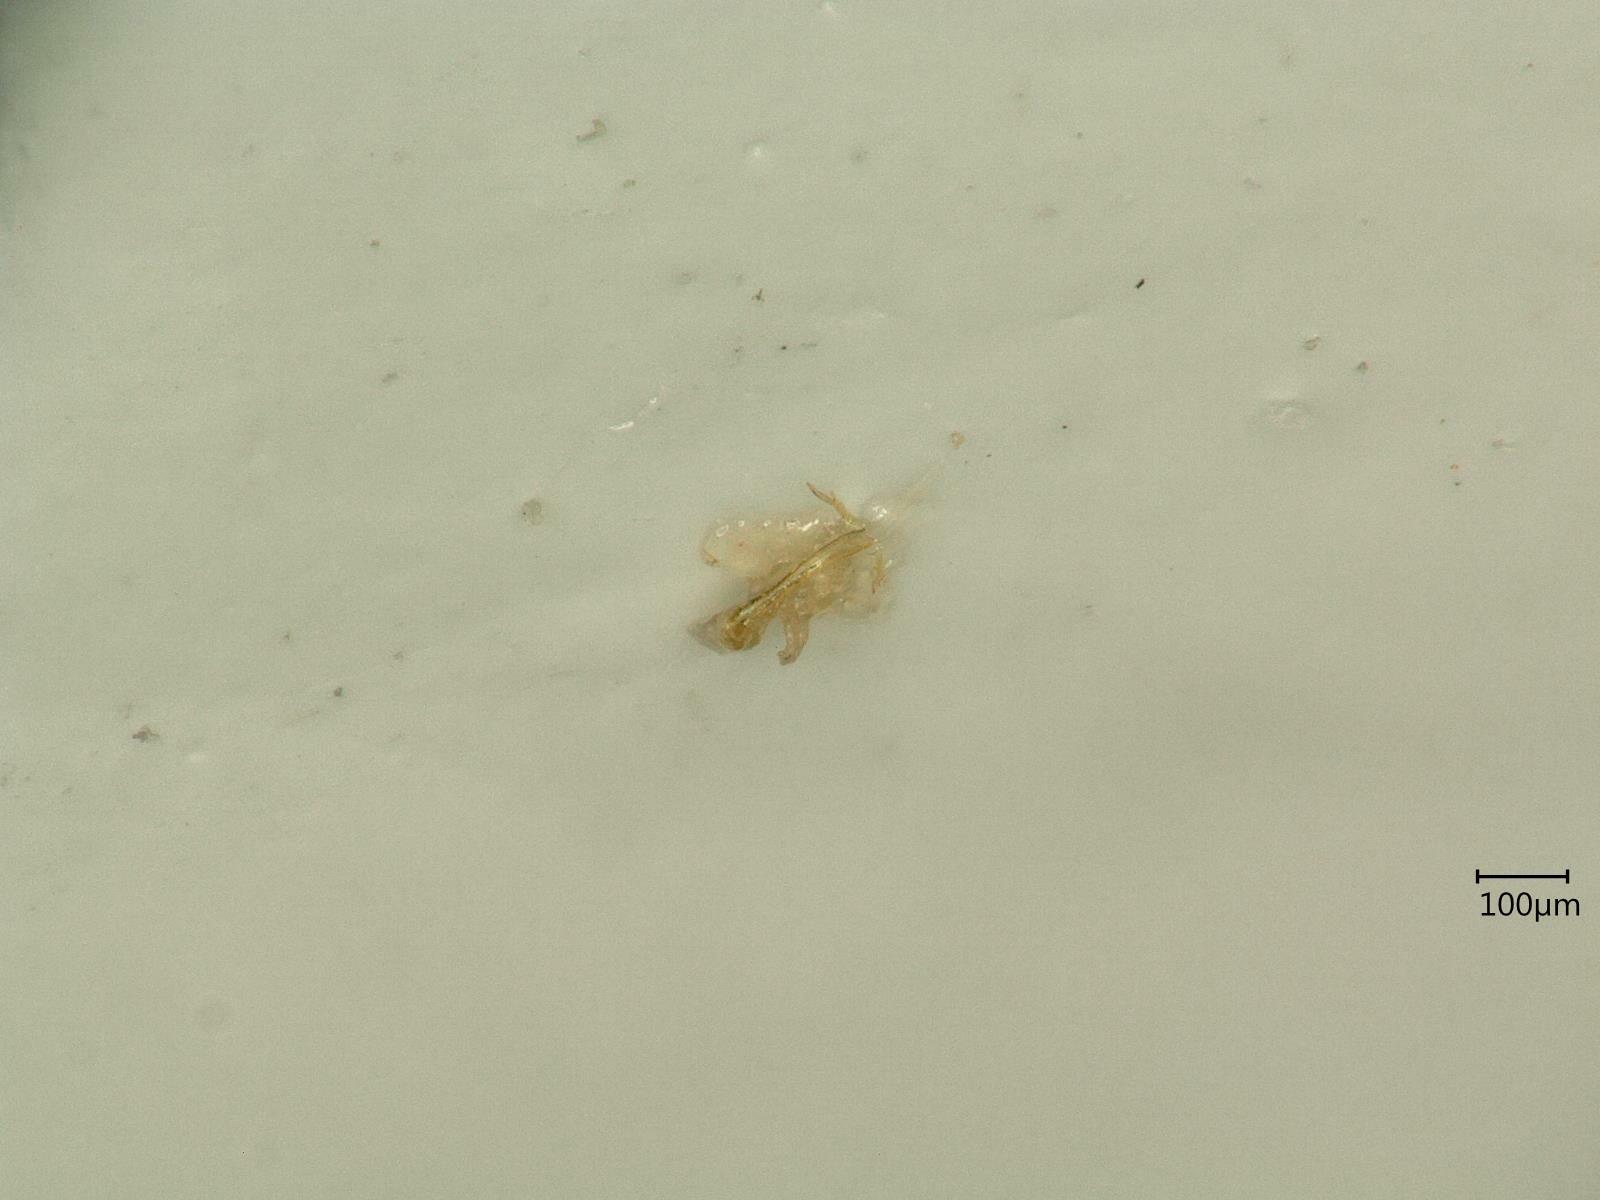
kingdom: Animalia
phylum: Arthropoda
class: Insecta
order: Hemiptera
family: Cicadellidae
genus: Eupteryx
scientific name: Eupteryx cyclops
